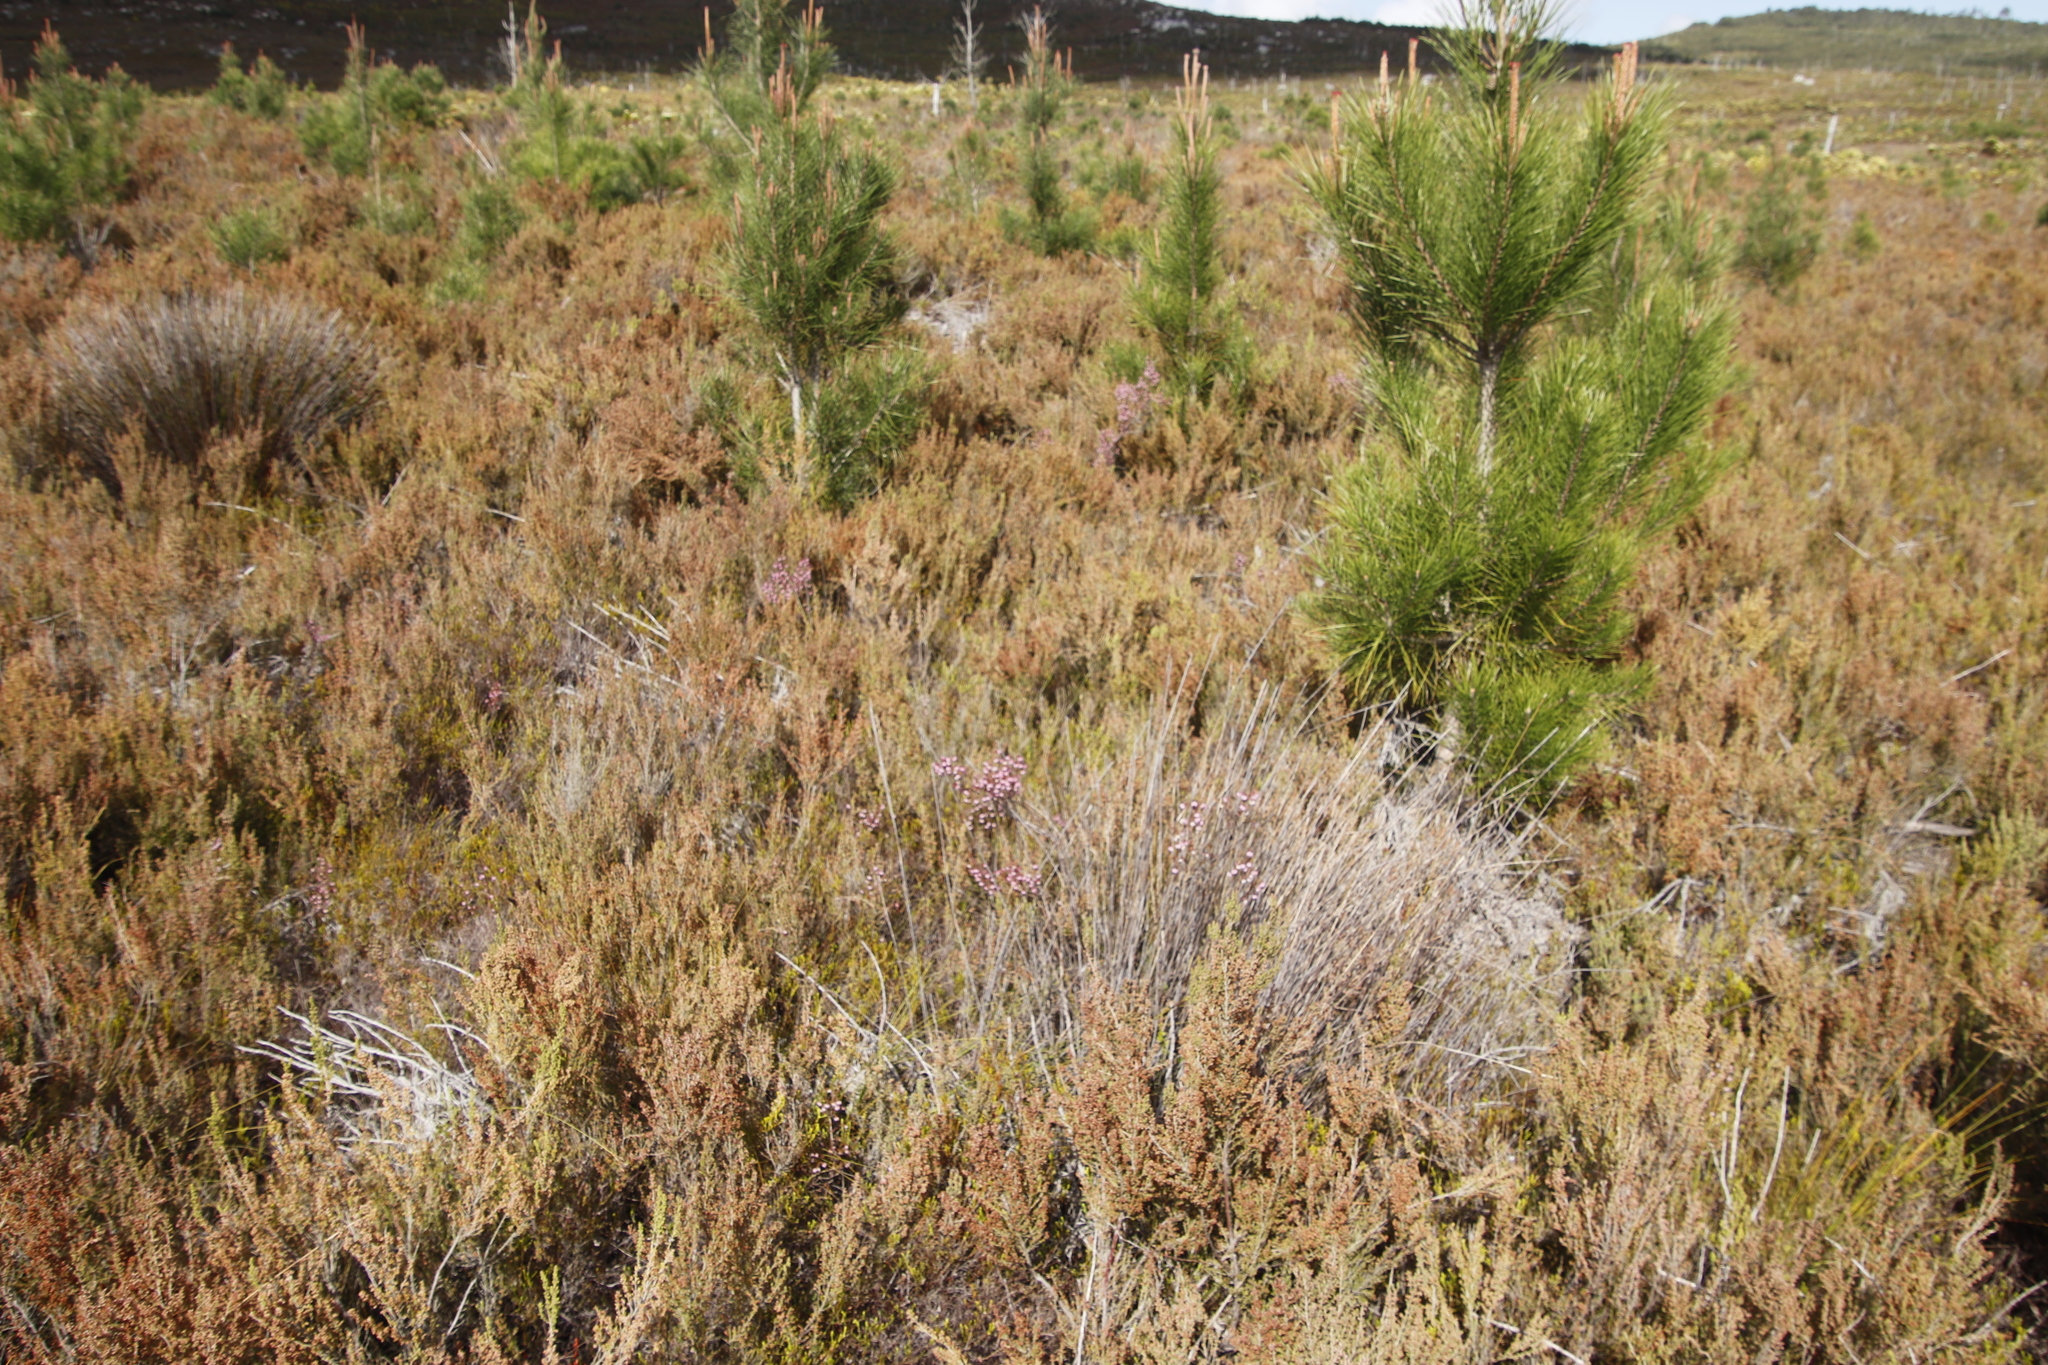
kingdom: Plantae
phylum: Tracheophyta
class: Magnoliopsida
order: Ericales
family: Ericaceae
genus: Erica
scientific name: Erica spumosa
